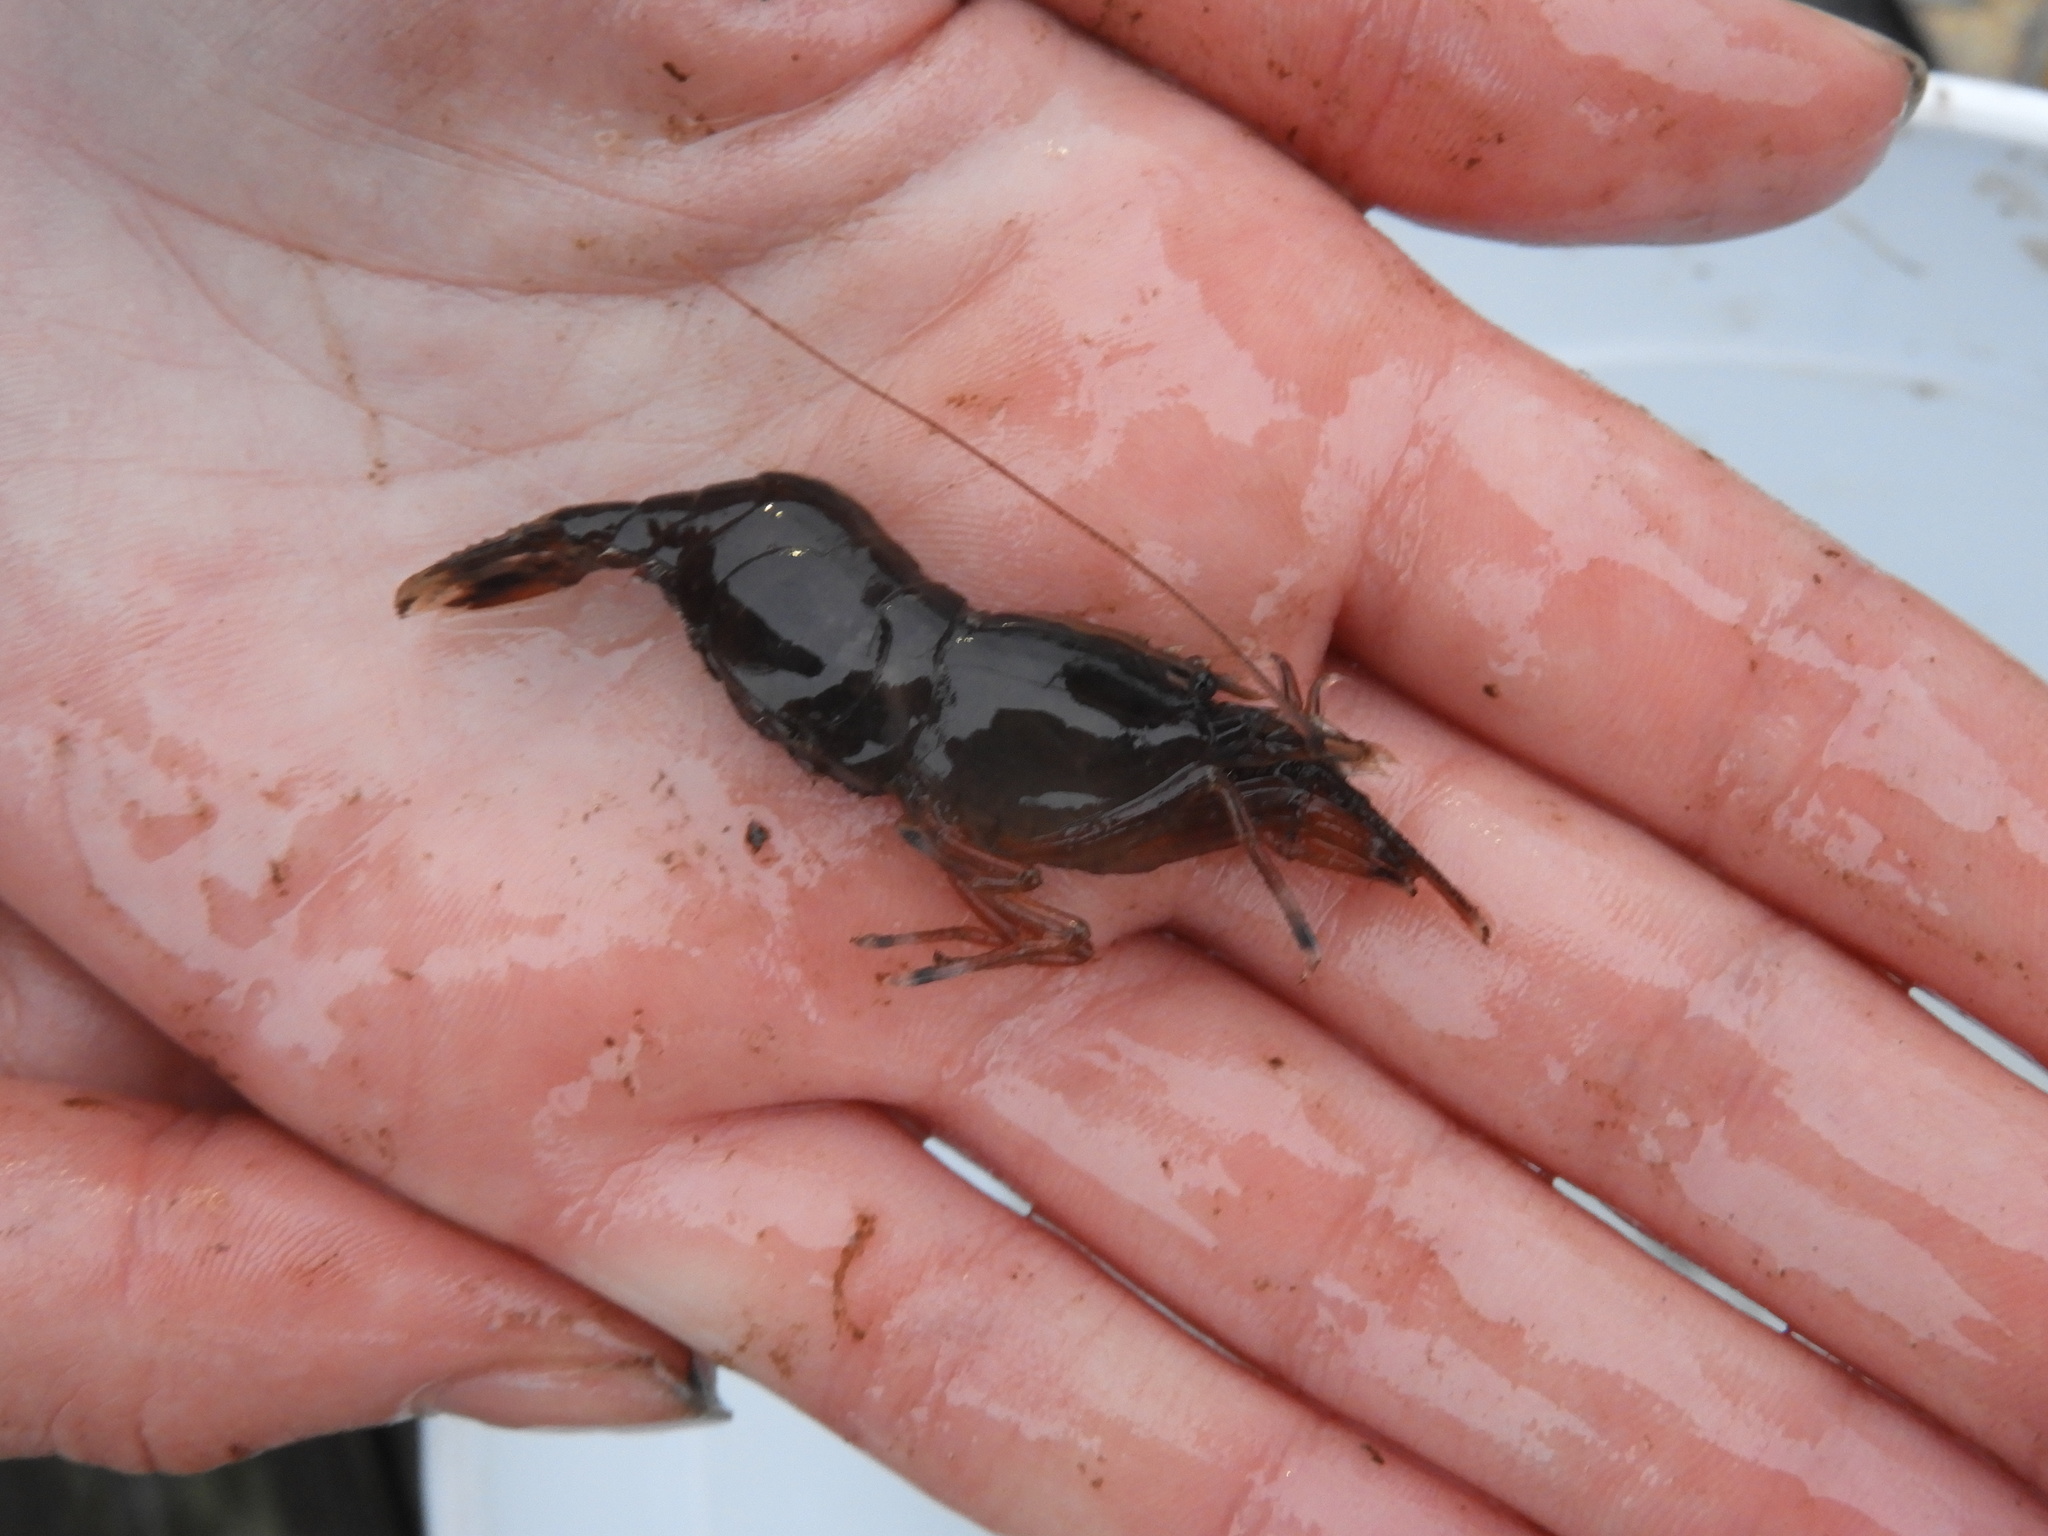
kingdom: Animalia
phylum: Arthropoda
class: Malacostraca
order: Decapoda
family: Thoridae
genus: Heptacarpus
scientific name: Heptacarpus brevirostris
